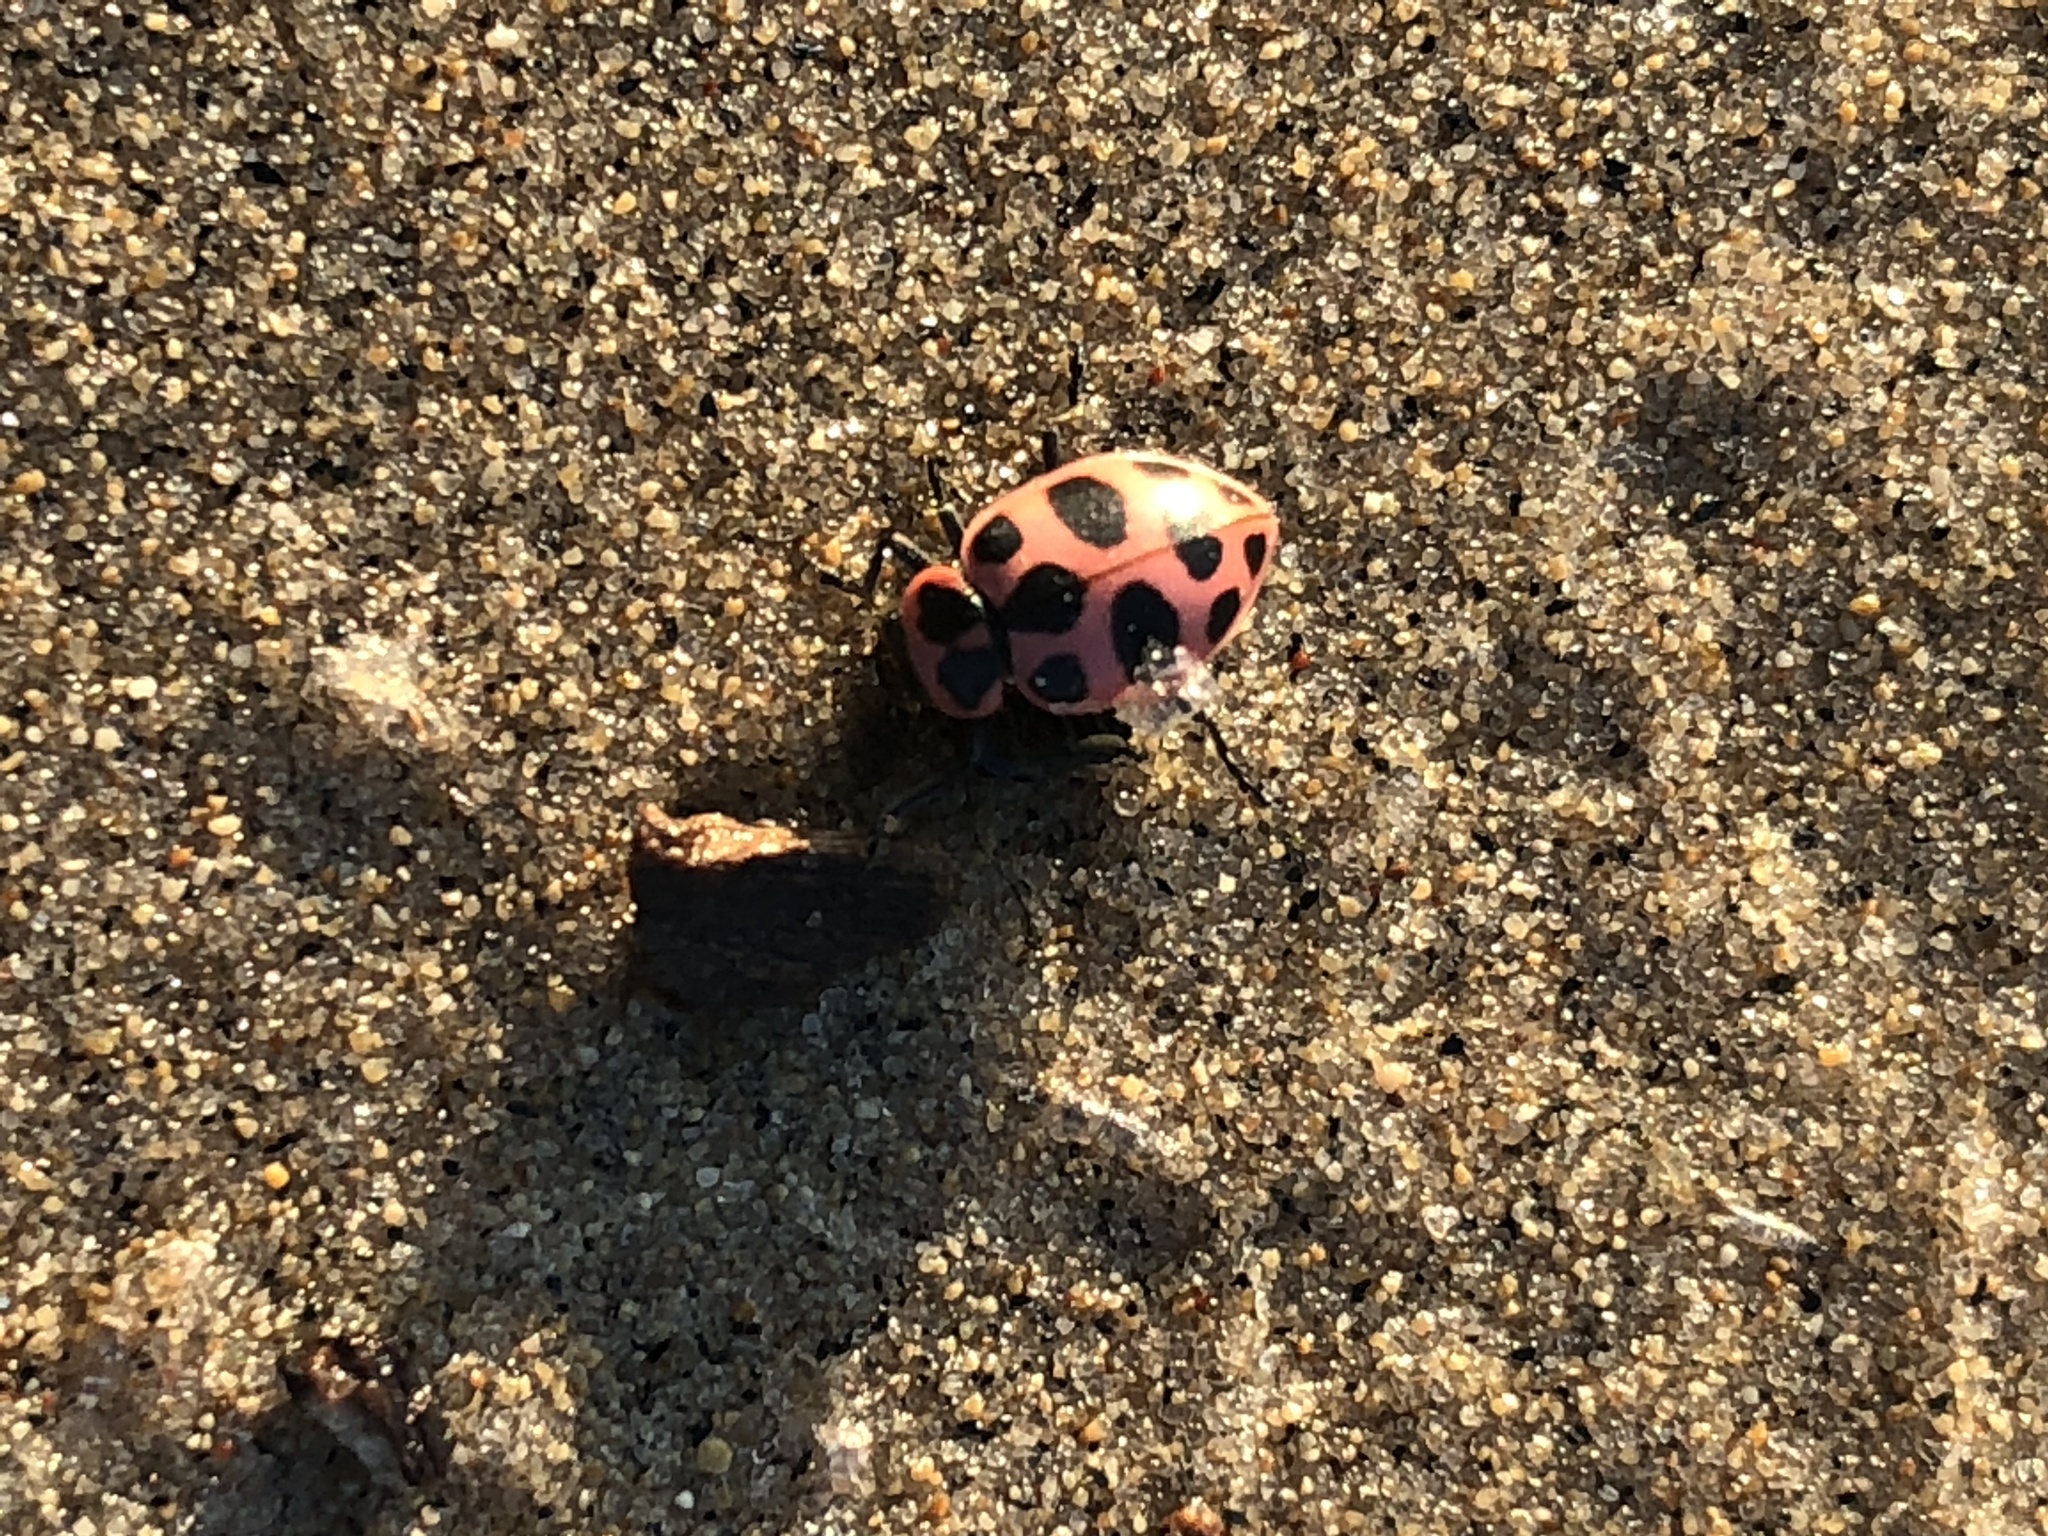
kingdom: Animalia
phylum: Arthropoda
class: Insecta
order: Coleoptera
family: Coccinellidae
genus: Coleomegilla
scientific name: Coleomegilla maculata
